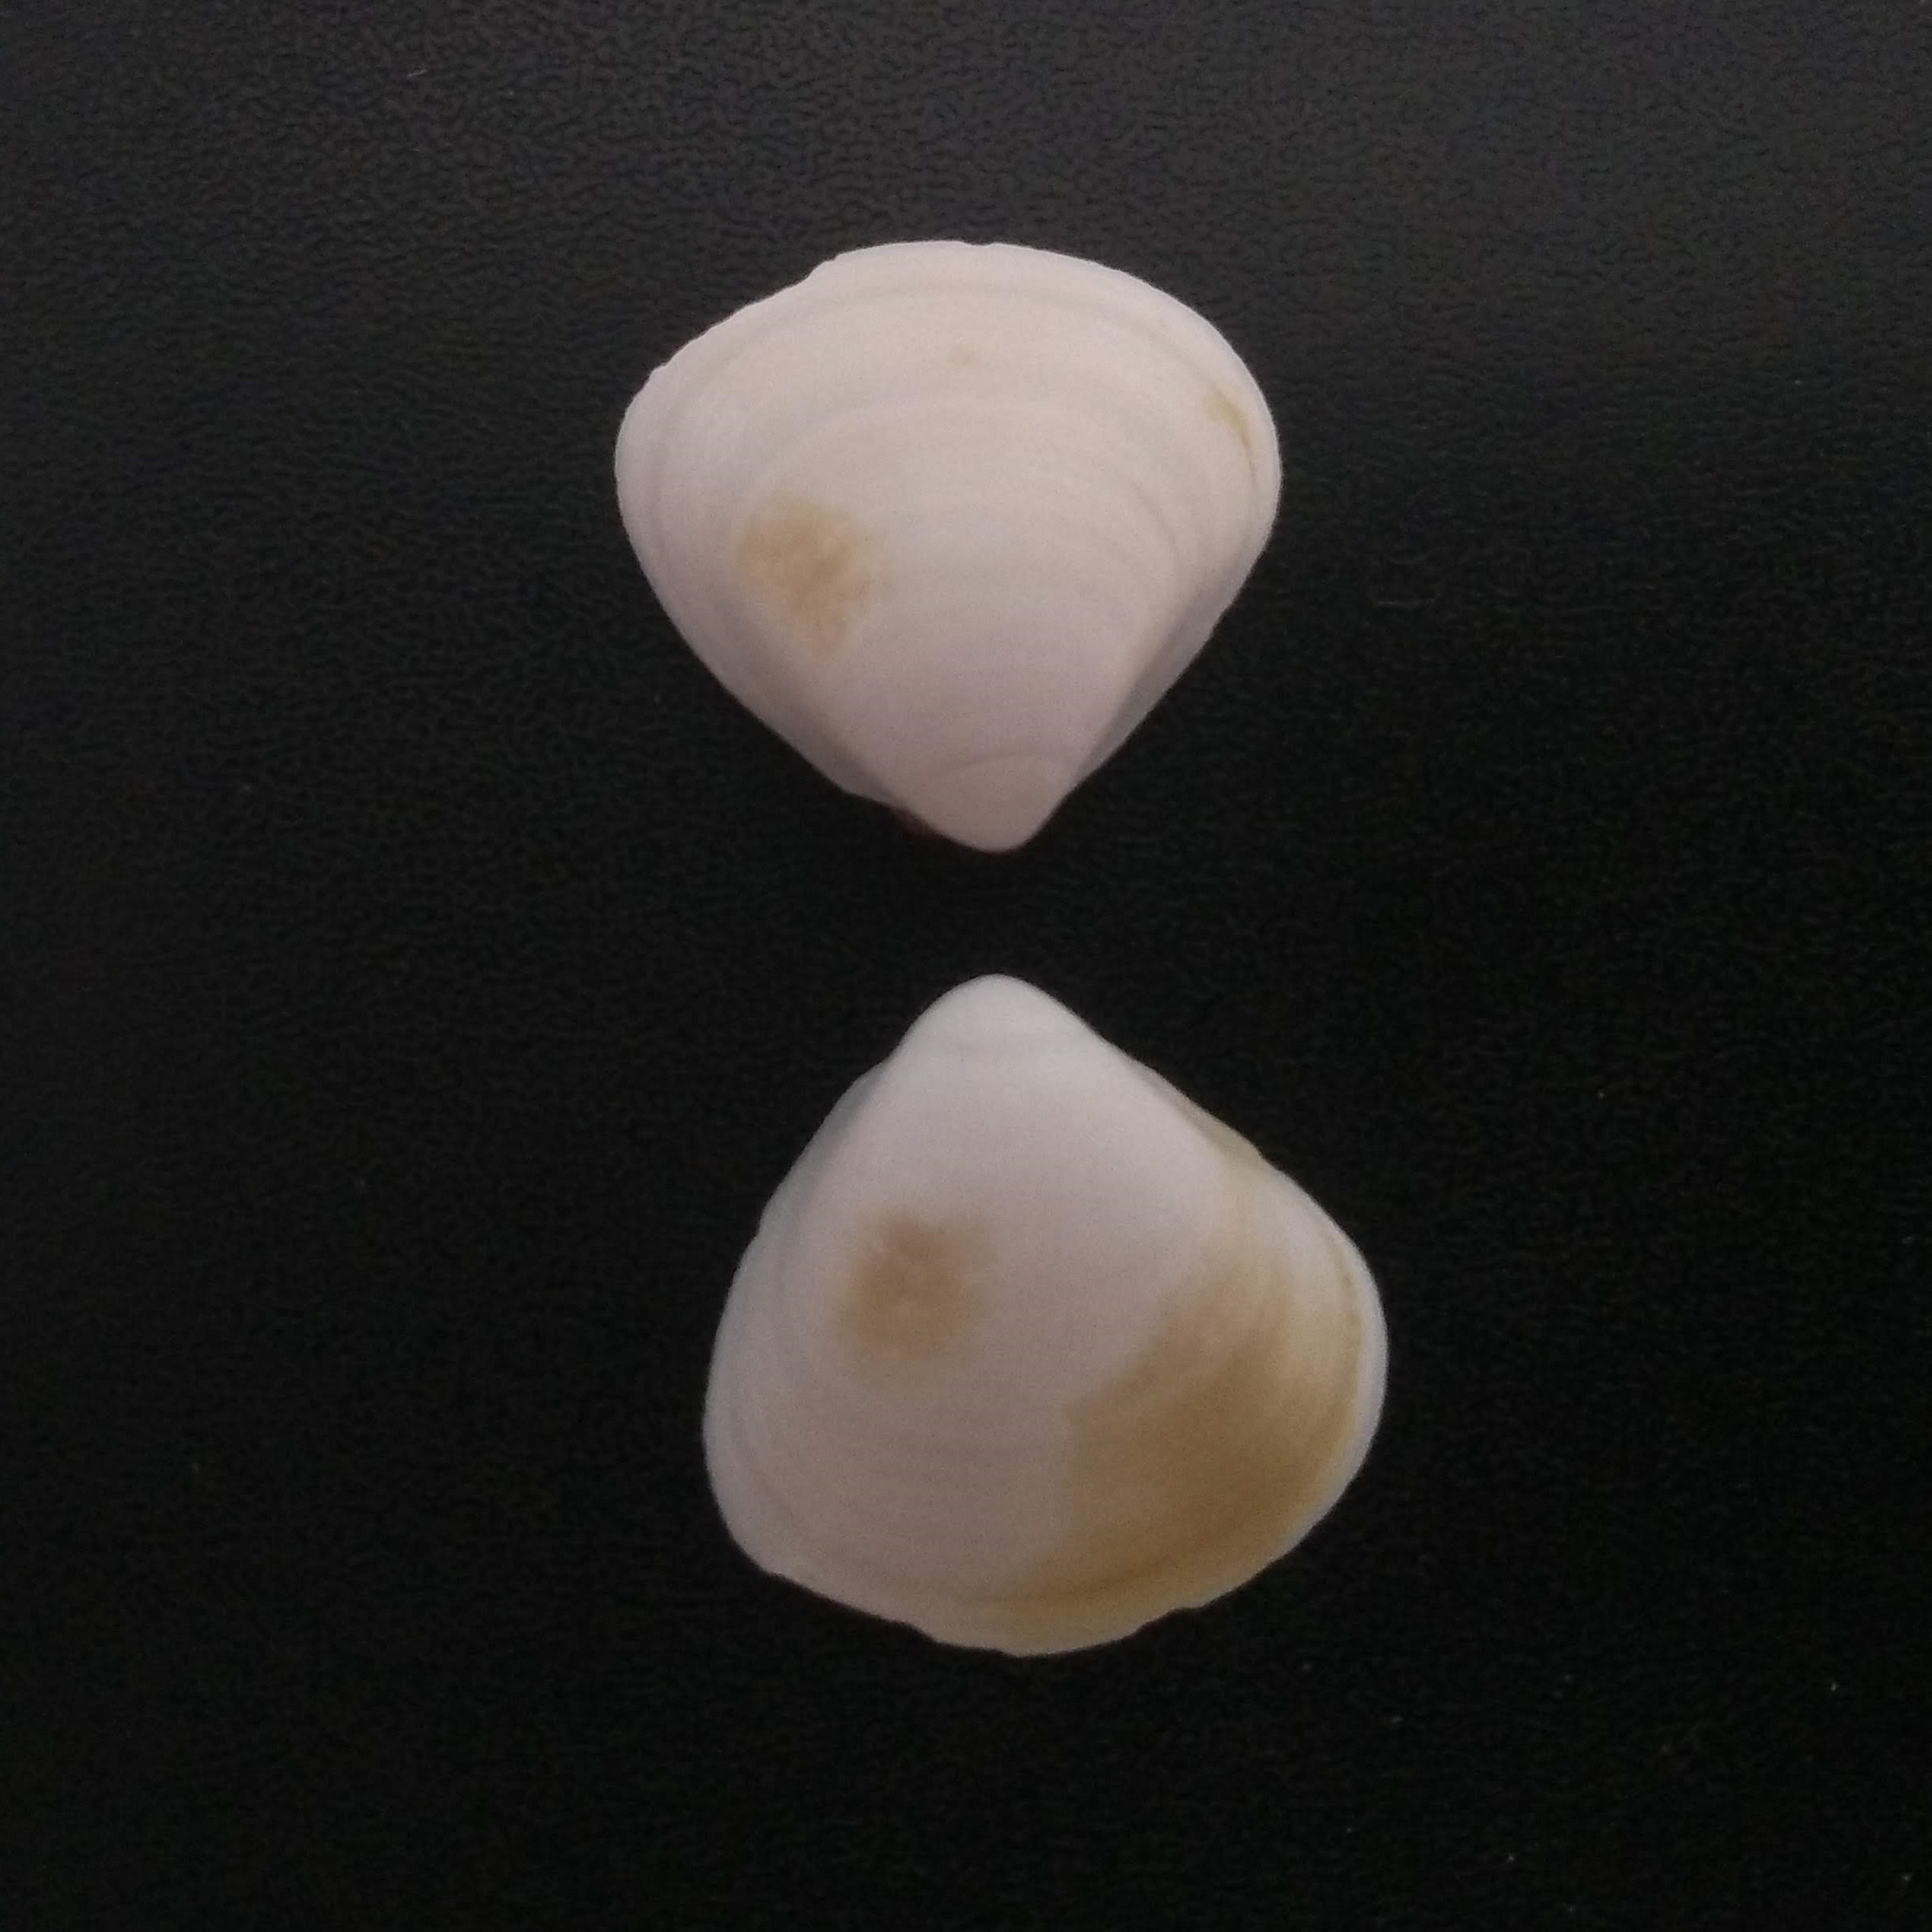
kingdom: Animalia
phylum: Mollusca
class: Bivalvia
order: Venerida
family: Veneridae
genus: Tivela
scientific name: Tivela mactroides
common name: Trigonal tivela
